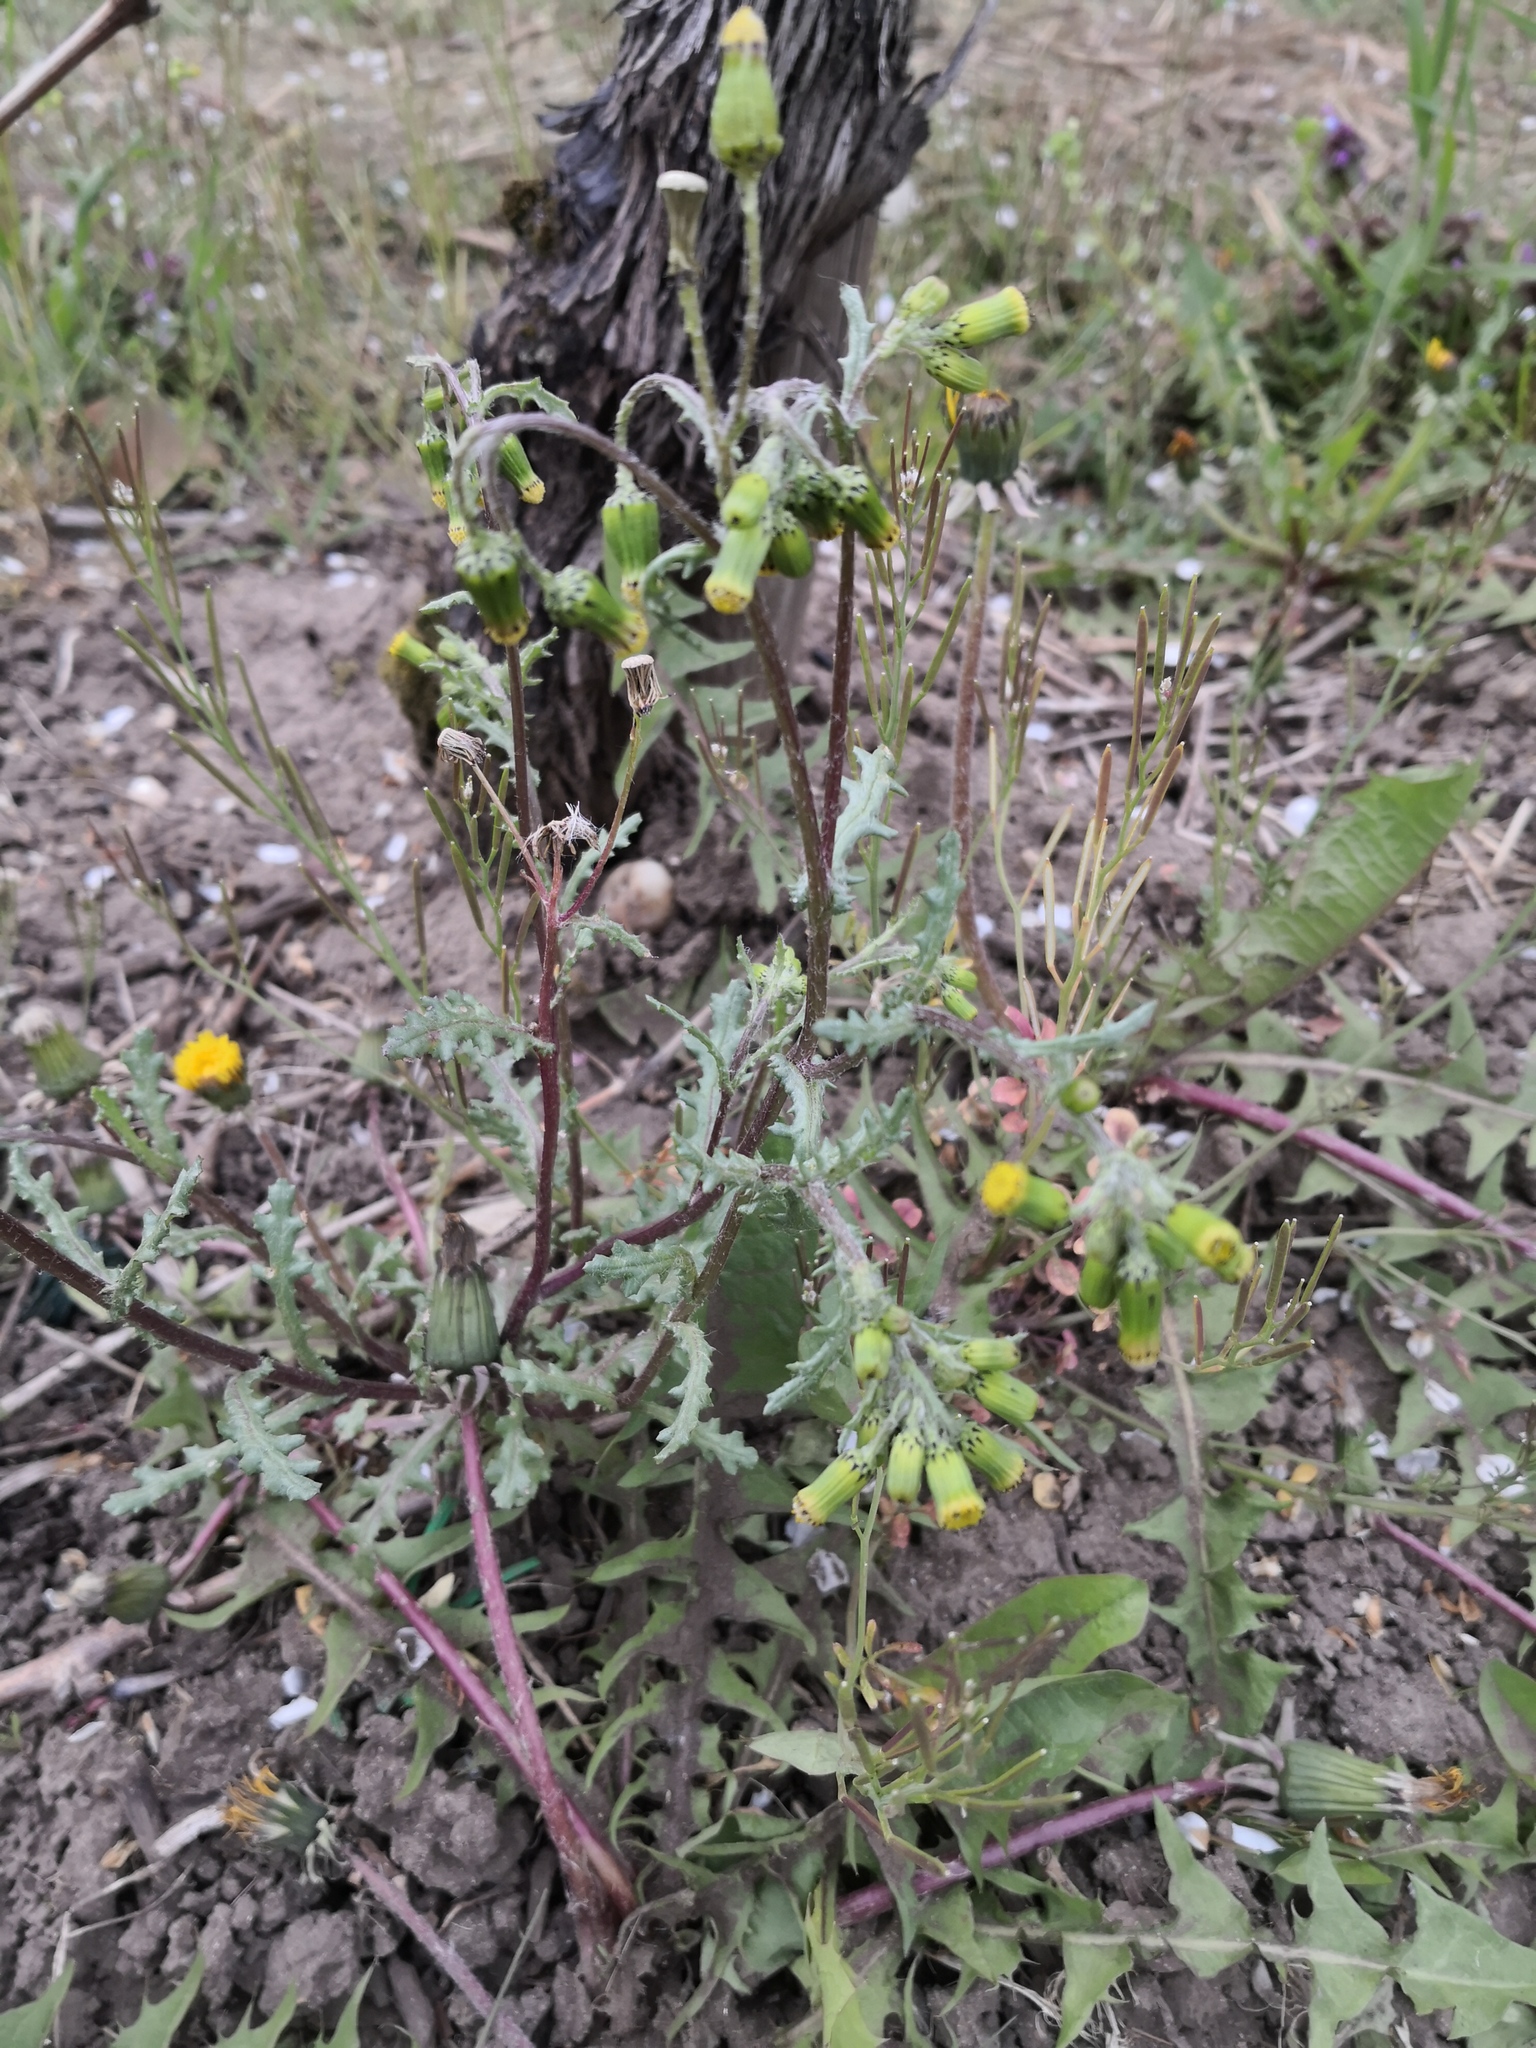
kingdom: Plantae
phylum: Tracheophyta
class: Magnoliopsida
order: Asterales
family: Asteraceae
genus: Senecio
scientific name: Senecio vulgaris
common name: Old-man-in-the-spring
